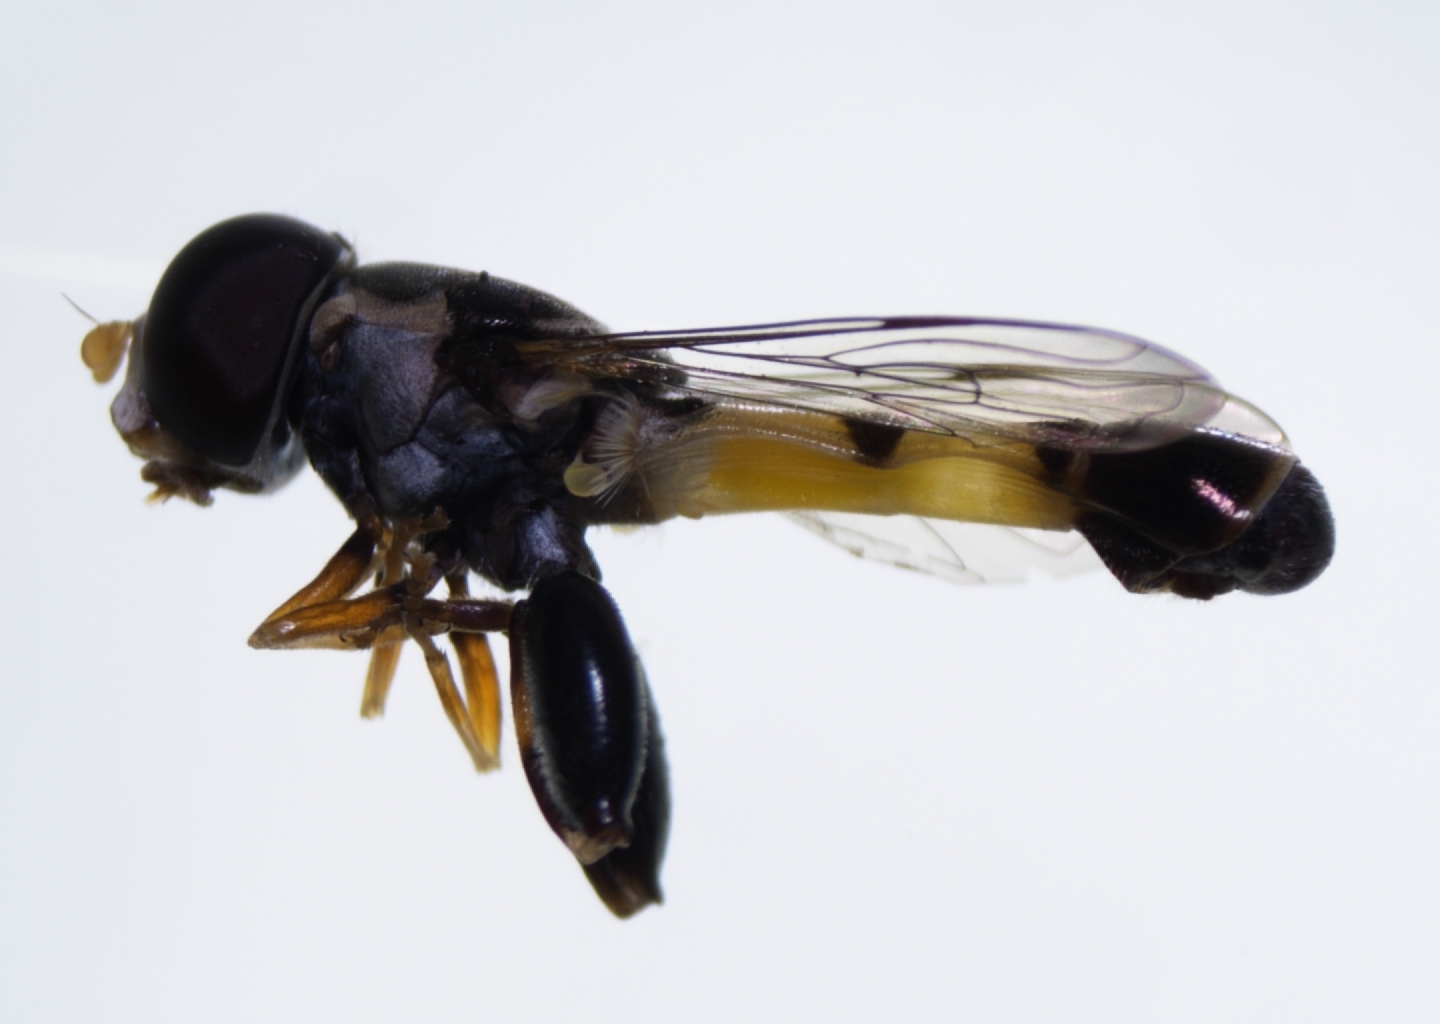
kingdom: Animalia
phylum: Arthropoda
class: Insecta
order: Diptera
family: Syrphidae
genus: Syritta
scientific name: Syritta aenigmatopatria
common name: Syrphid fly
